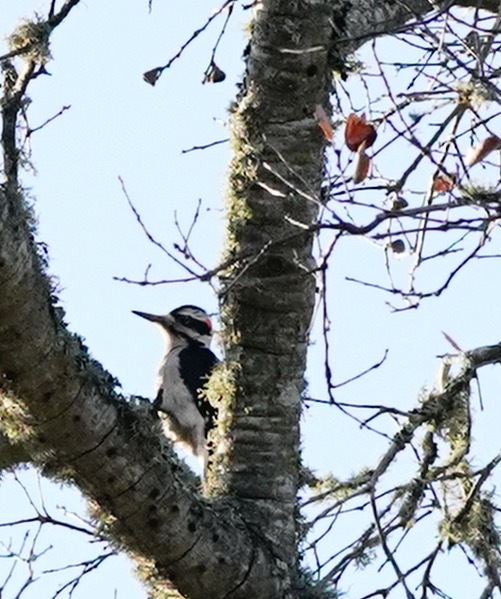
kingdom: Animalia
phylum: Chordata
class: Aves
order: Piciformes
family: Picidae
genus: Leuconotopicus
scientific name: Leuconotopicus villosus
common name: Hairy woodpecker
